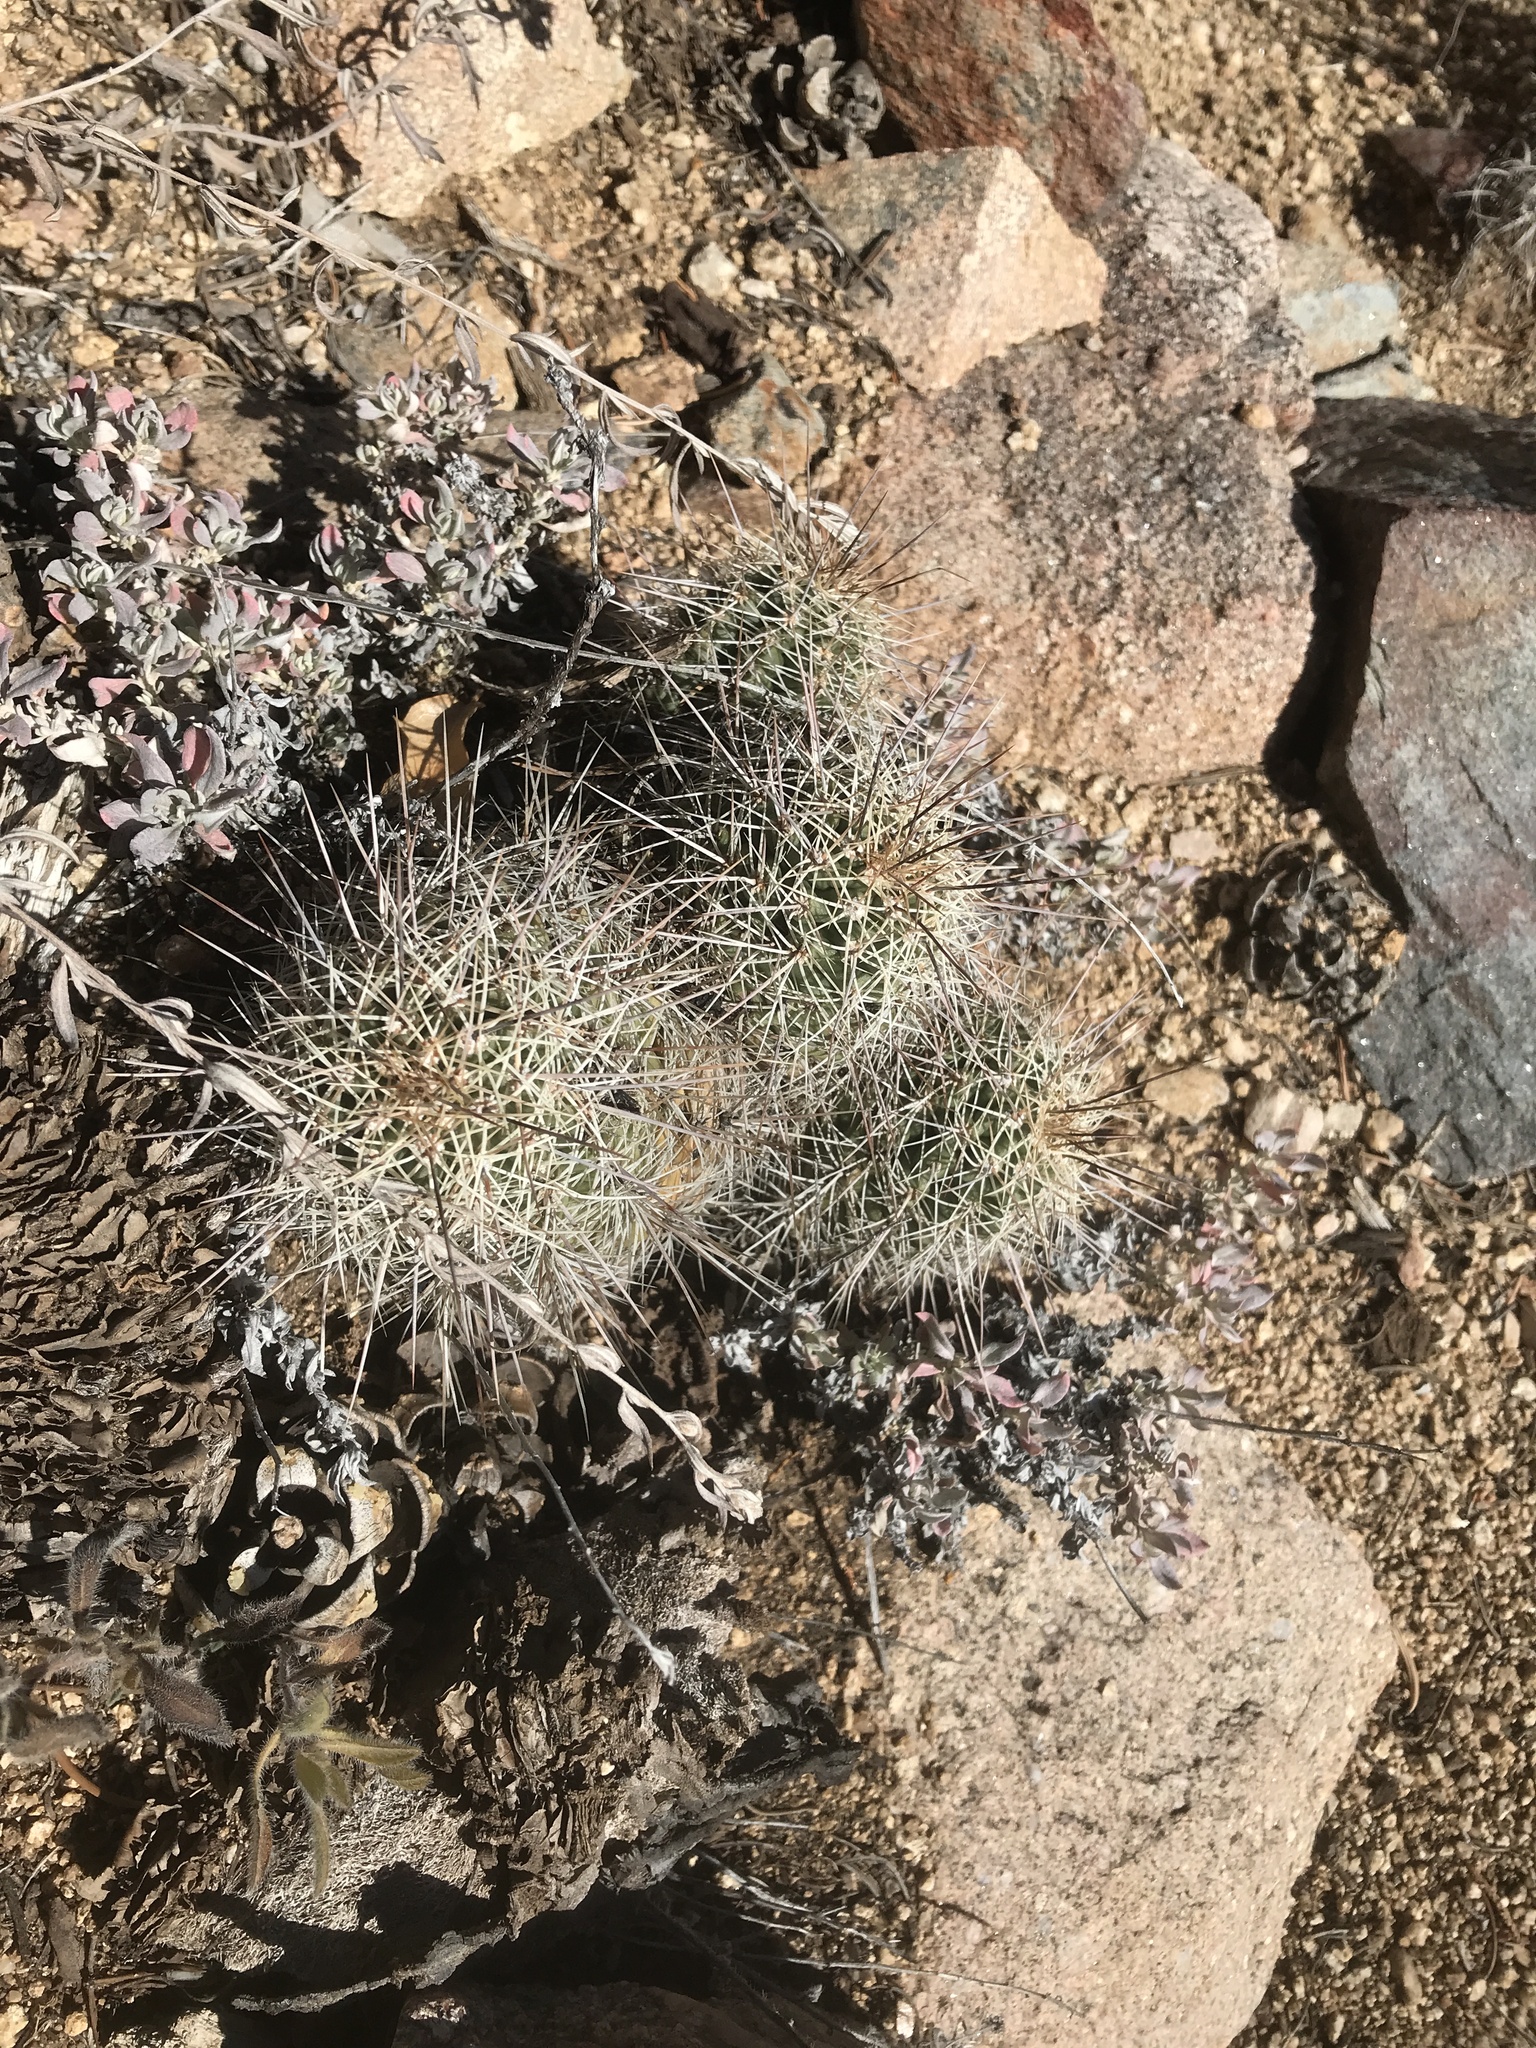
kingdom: Plantae
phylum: Tracheophyta
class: Magnoliopsida
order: Caryophyllales
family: Cactaceae
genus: Echinocereus
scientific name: Echinocereus coccineus
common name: Scarlet hedgehog cactus
